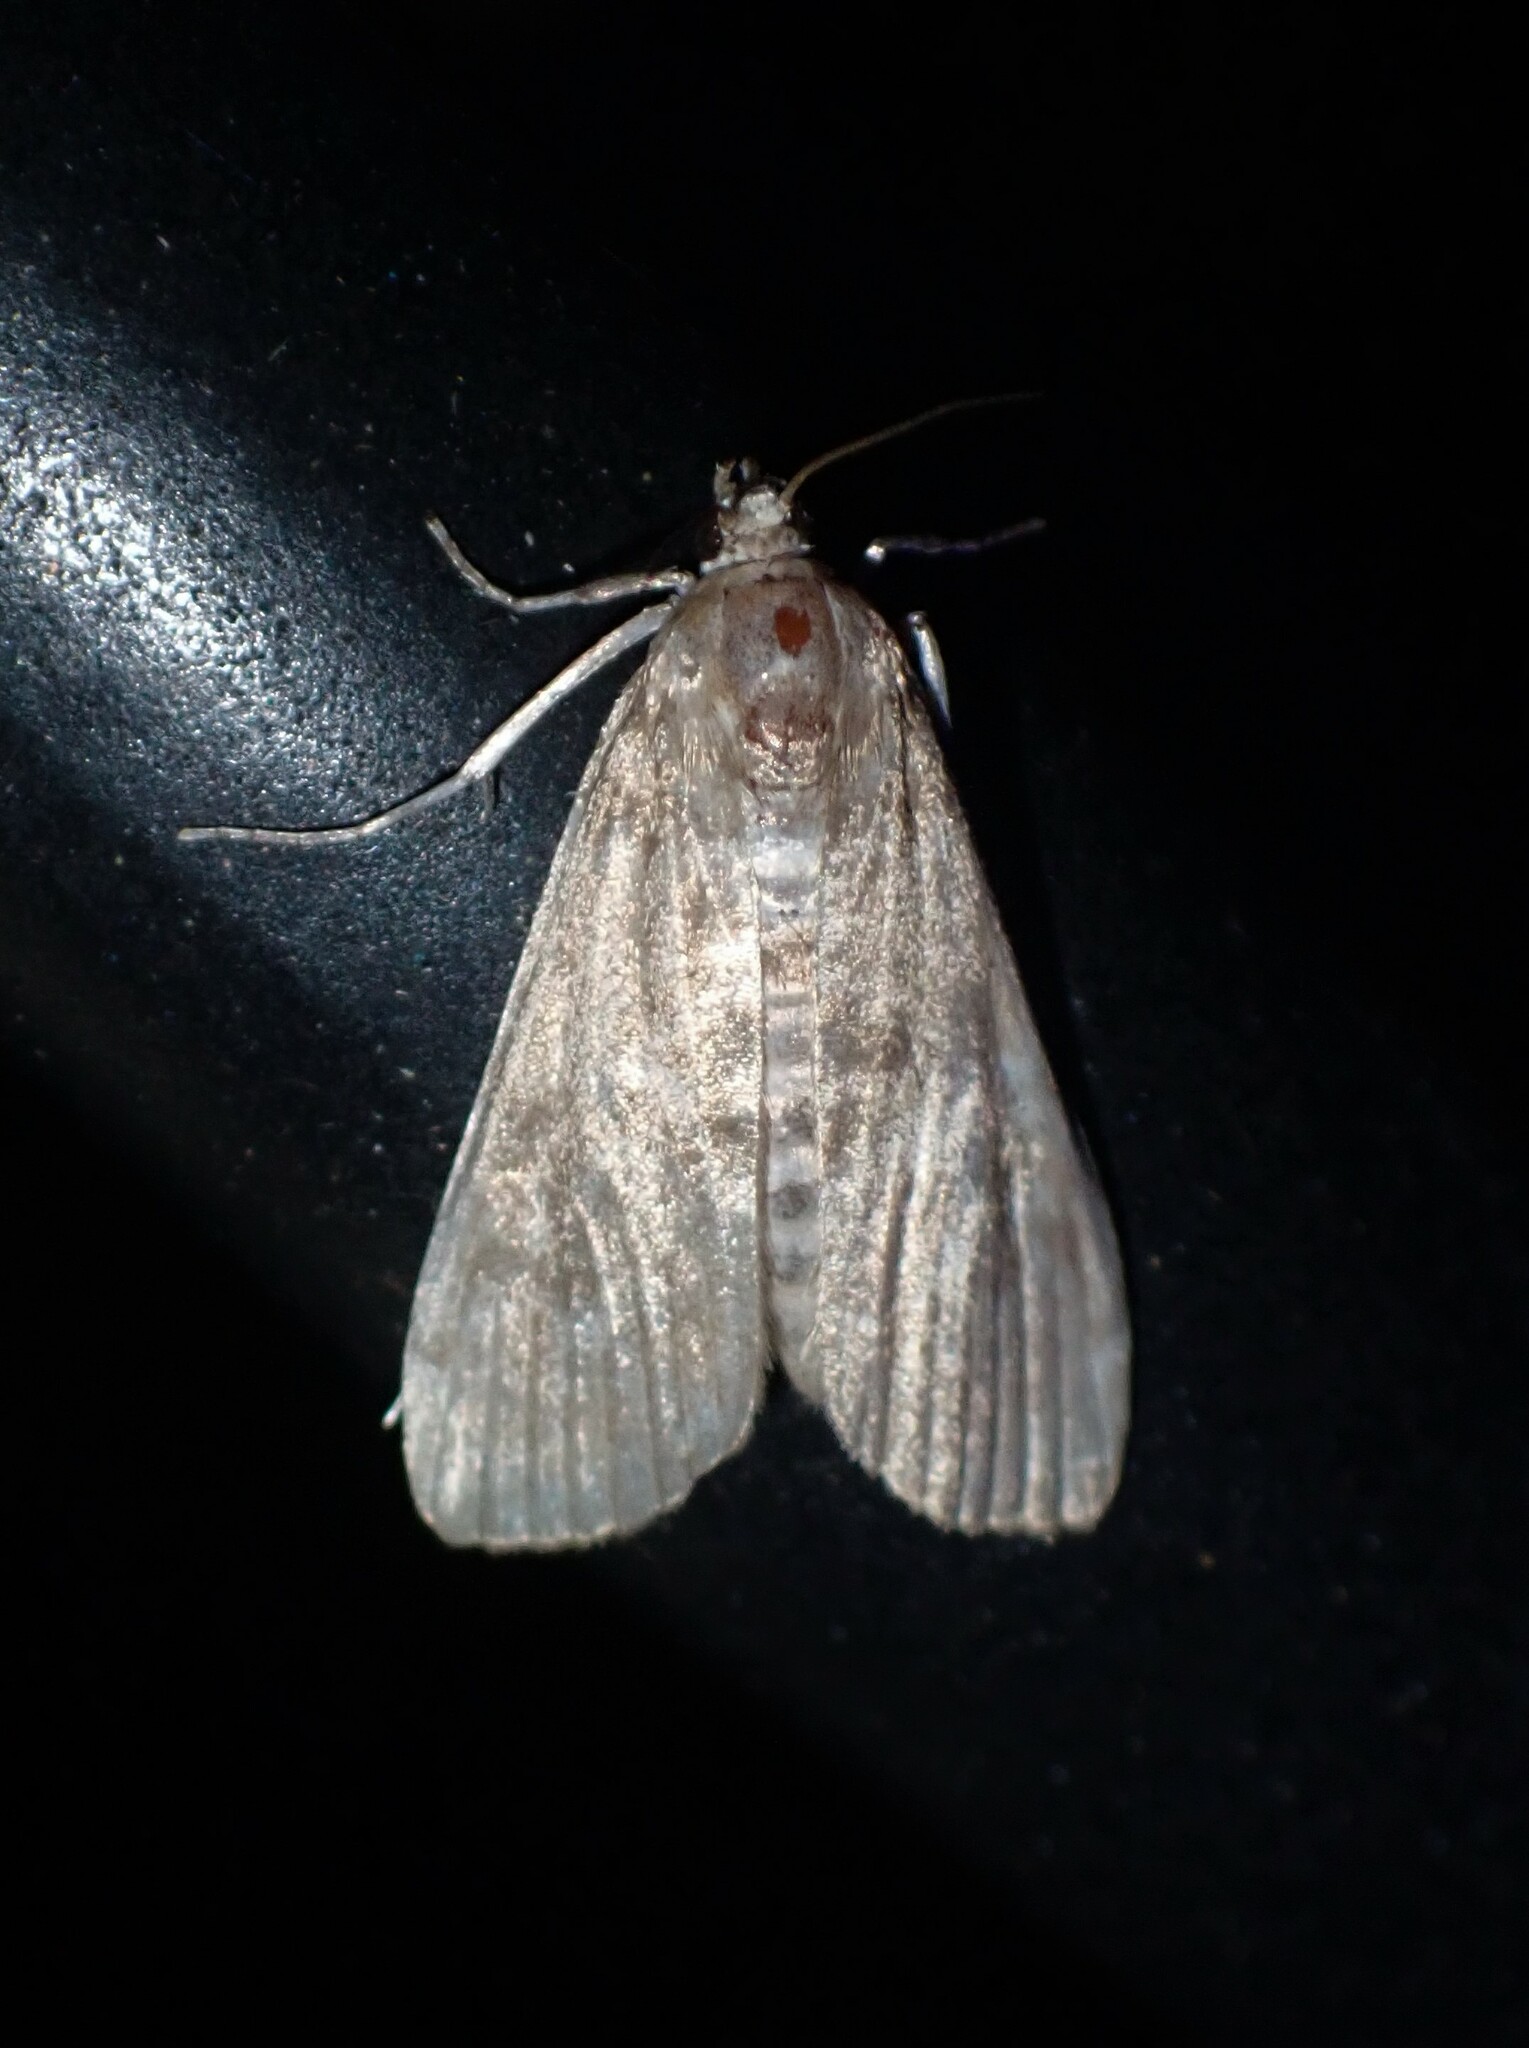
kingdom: Animalia
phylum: Arthropoda
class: Insecta
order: Lepidoptera
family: Crambidae
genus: Elophila
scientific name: Elophila gyralis
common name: Waterlily borer moth
